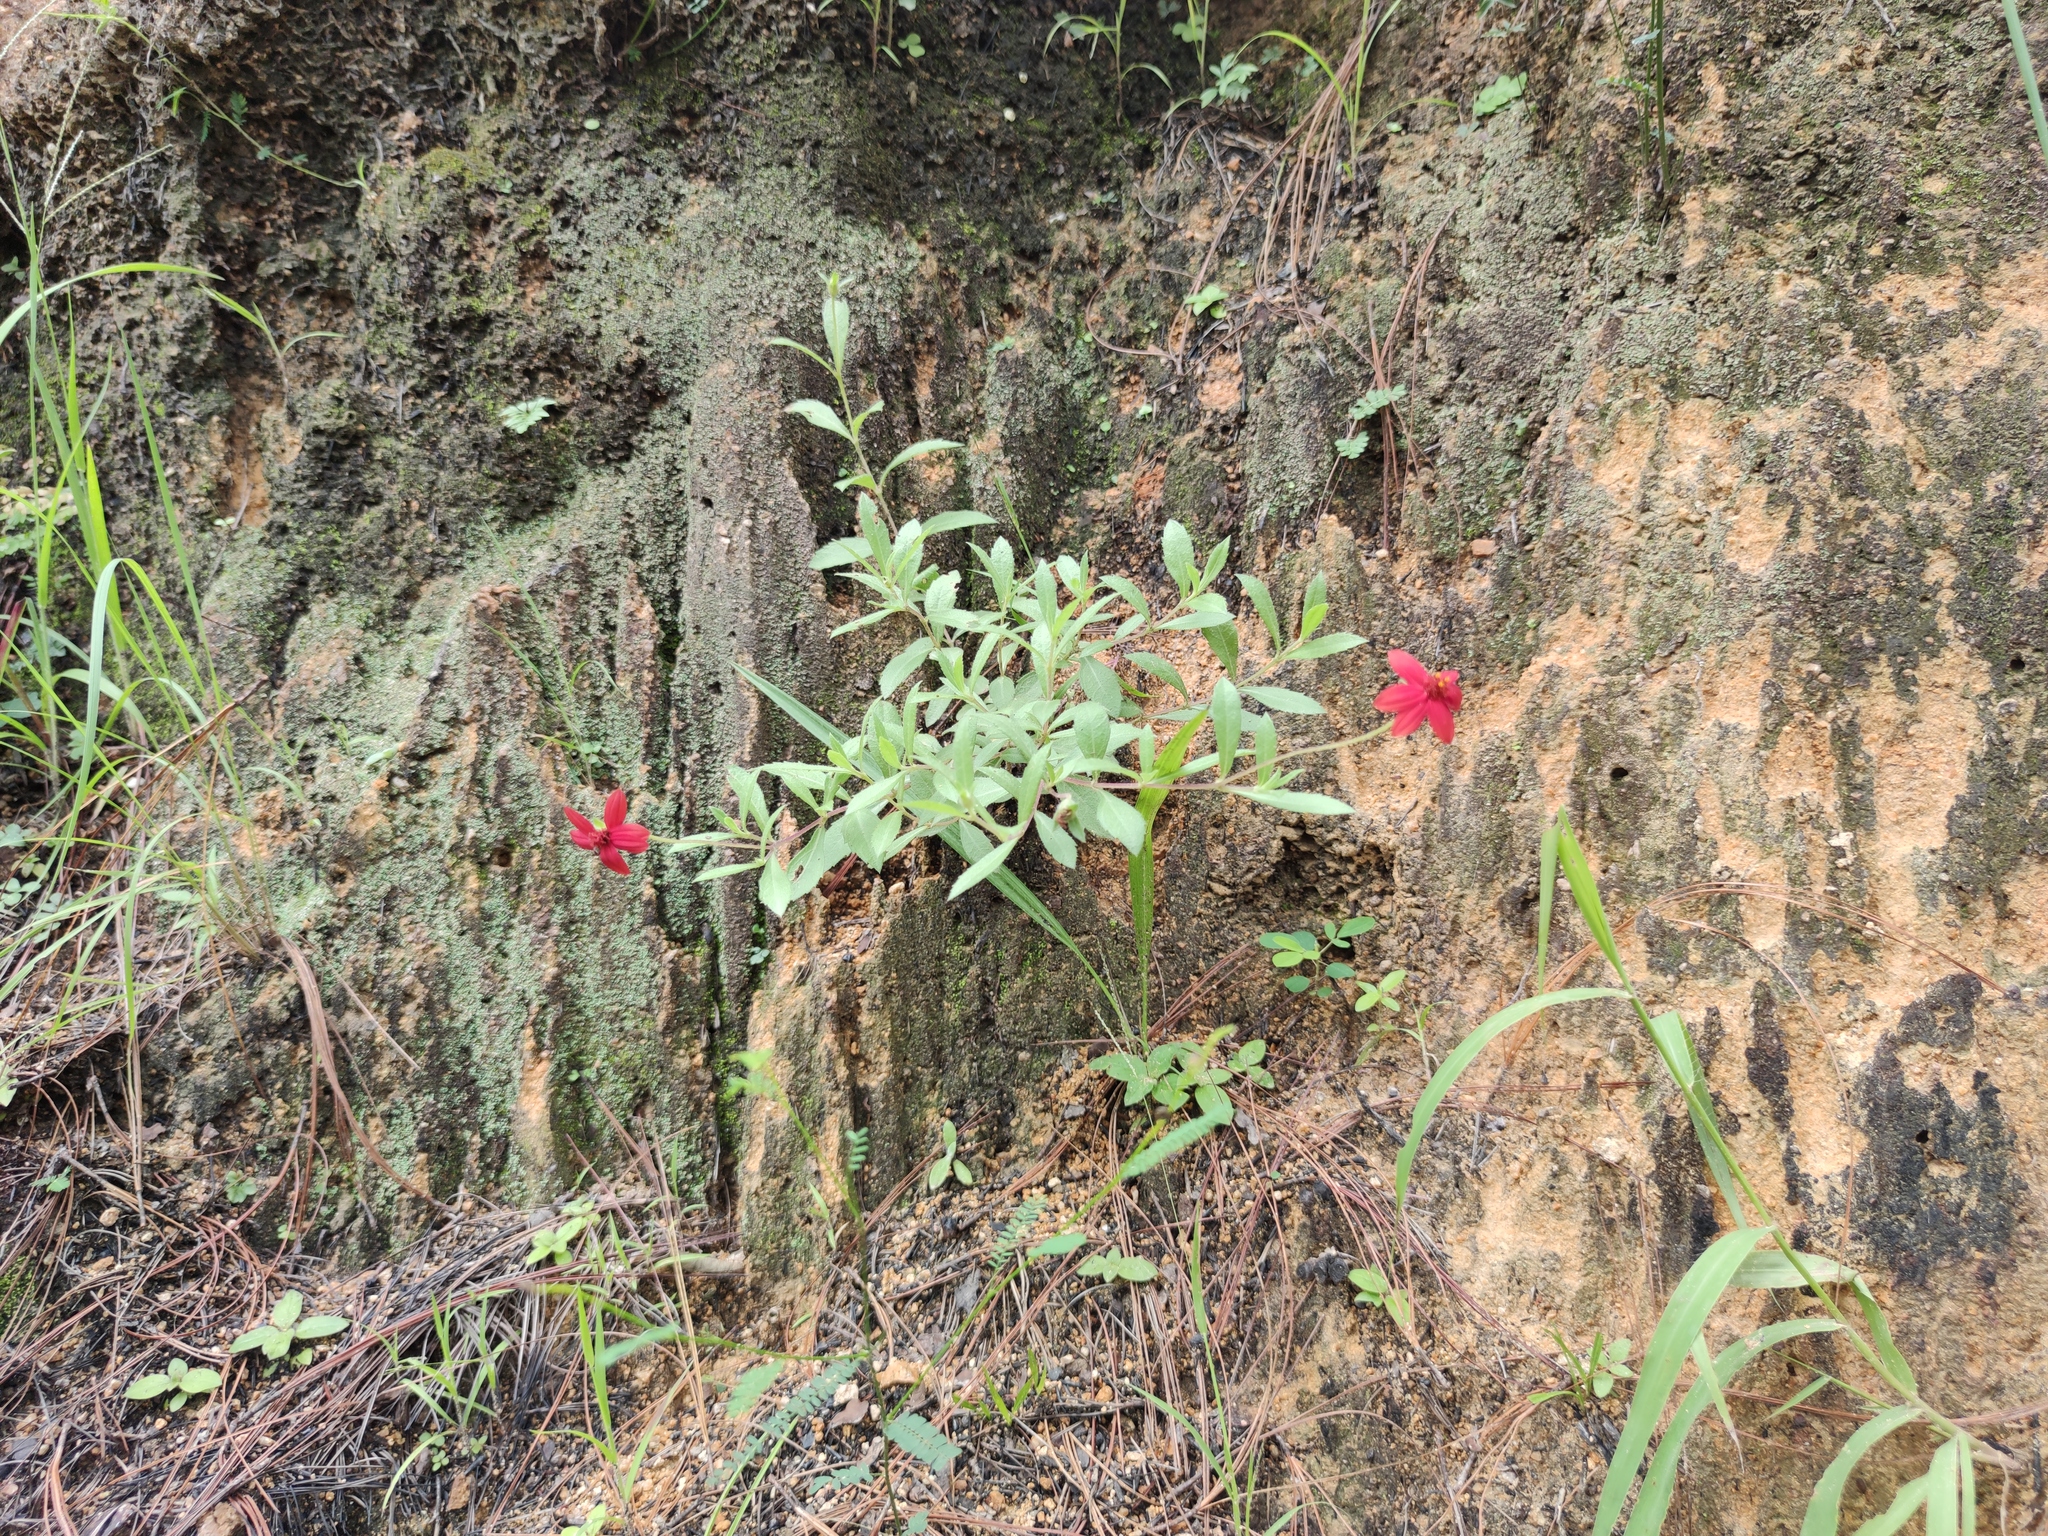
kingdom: Plantae
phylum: Tracheophyta
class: Magnoliopsida
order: Asterales
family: Asteraceae
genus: Wedelia
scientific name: Wedelia purpurea
